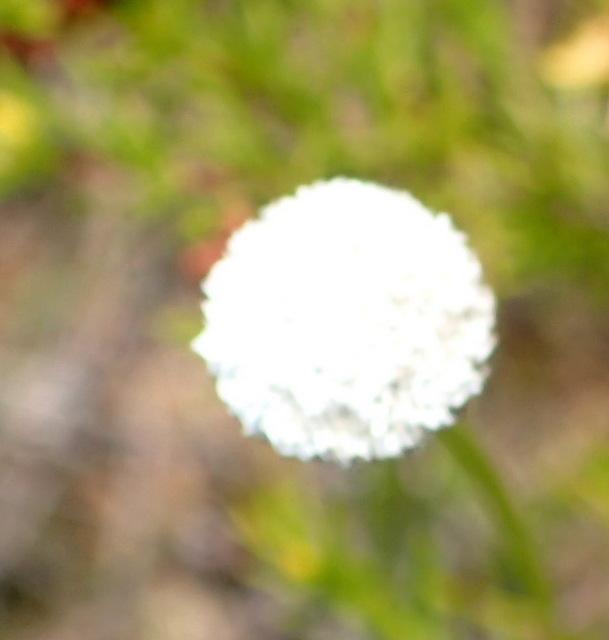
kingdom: Plantae
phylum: Tracheophyta
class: Liliopsida
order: Poales
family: Eriocaulaceae
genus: Eriocaulon
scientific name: Eriocaulon compressum
